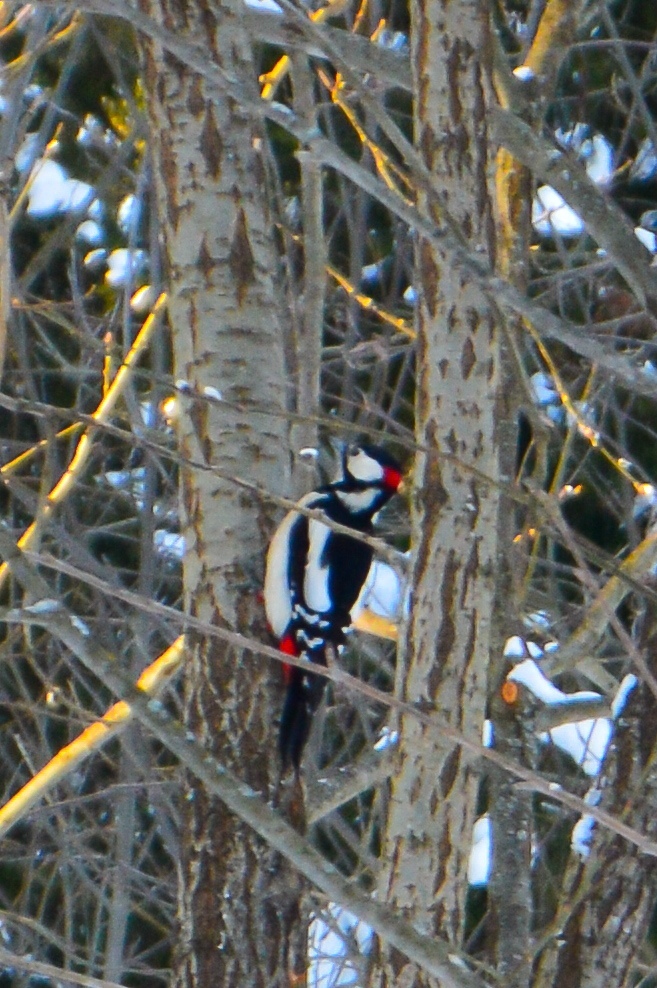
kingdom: Animalia
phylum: Chordata
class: Aves
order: Piciformes
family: Picidae
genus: Dendrocopos
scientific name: Dendrocopos major
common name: Great spotted woodpecker
